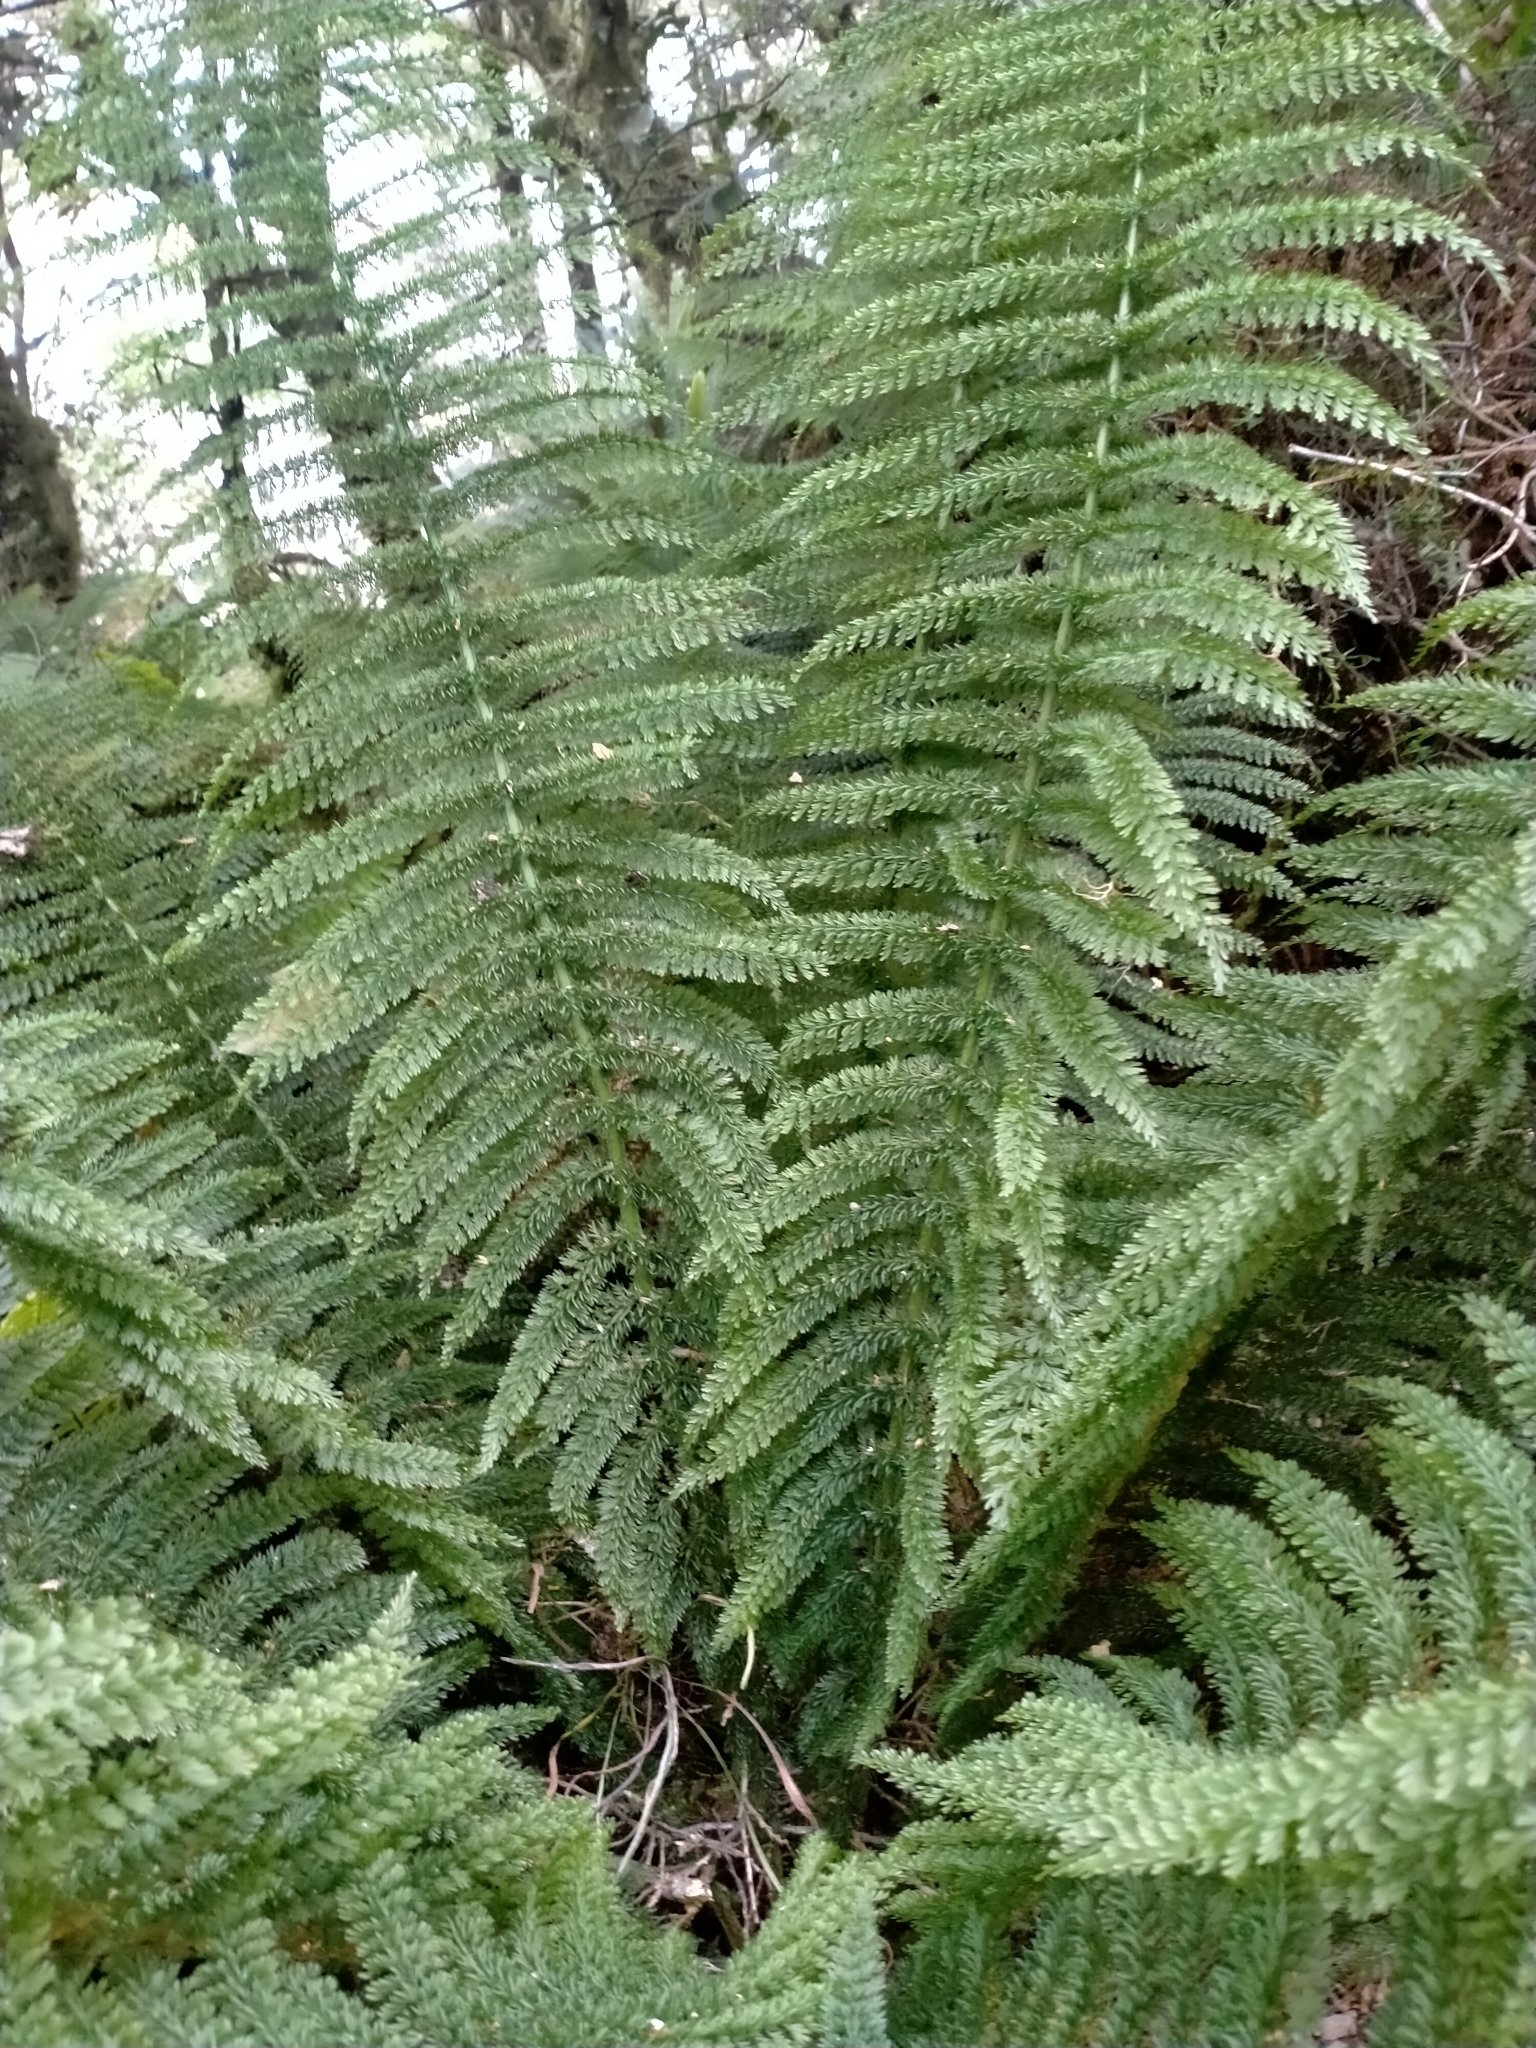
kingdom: Plantae
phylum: Tracheophyta
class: Polypodiopsida
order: Osmundales
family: Osmundaceae
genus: Leptopteris
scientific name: Leptopteris superba
